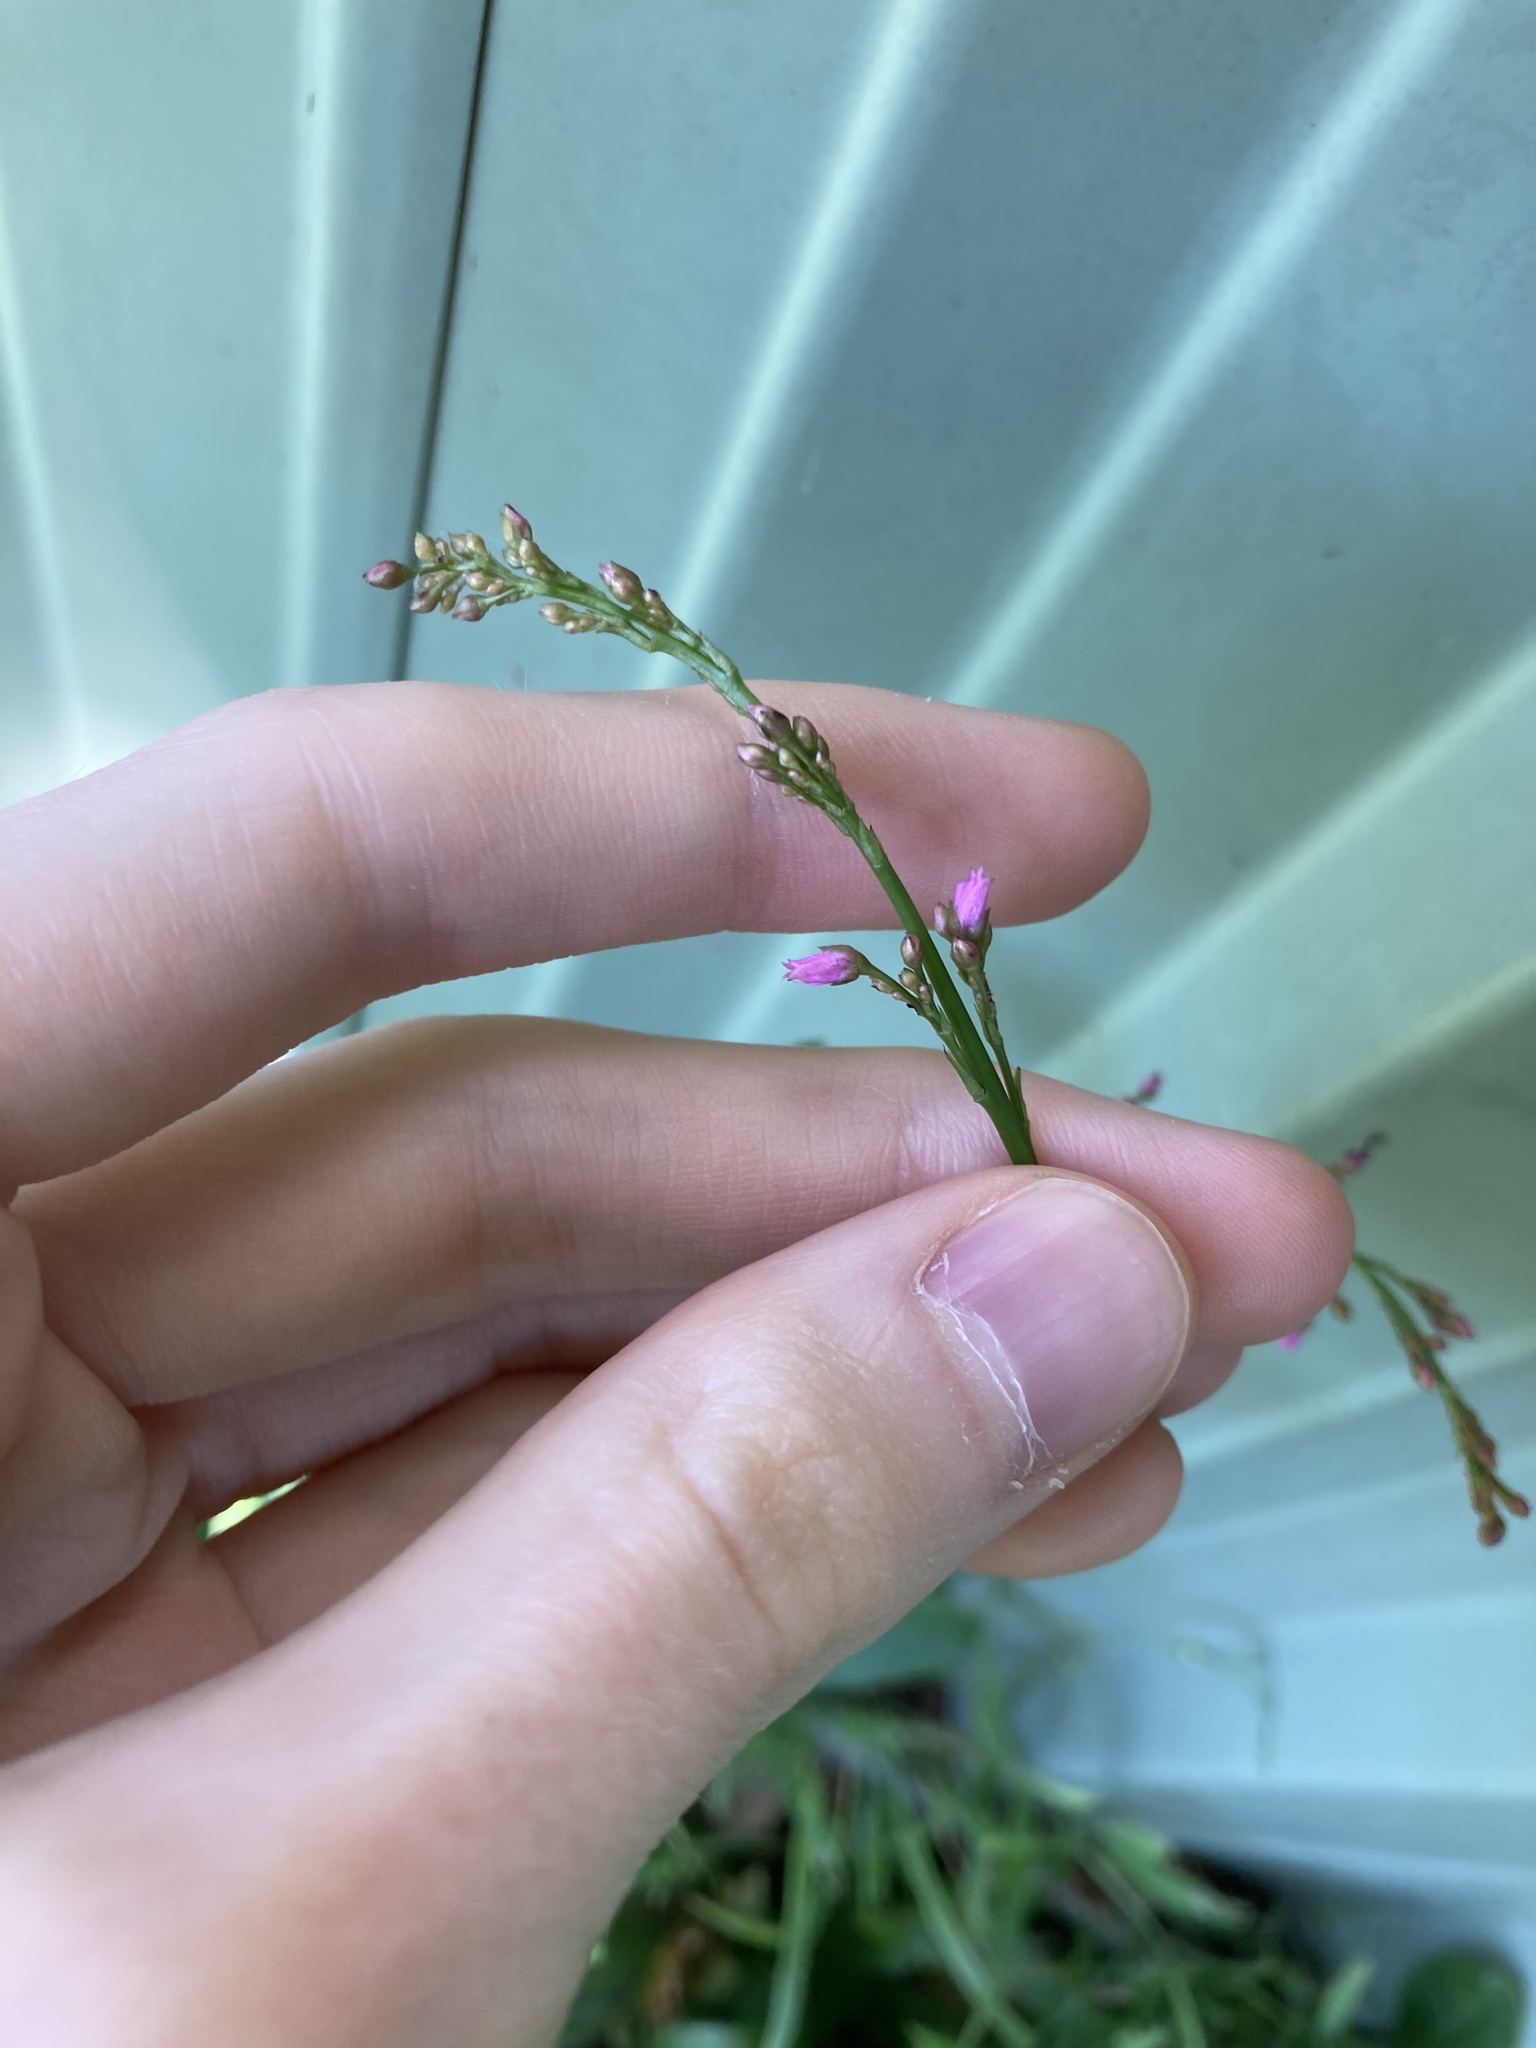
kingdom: Plantae
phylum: Tracheophyta
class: Magnoliopsida
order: Caryophyllales
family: Talinaceae
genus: Talinum
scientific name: Talinum paniculatum
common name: Jewels of opar
